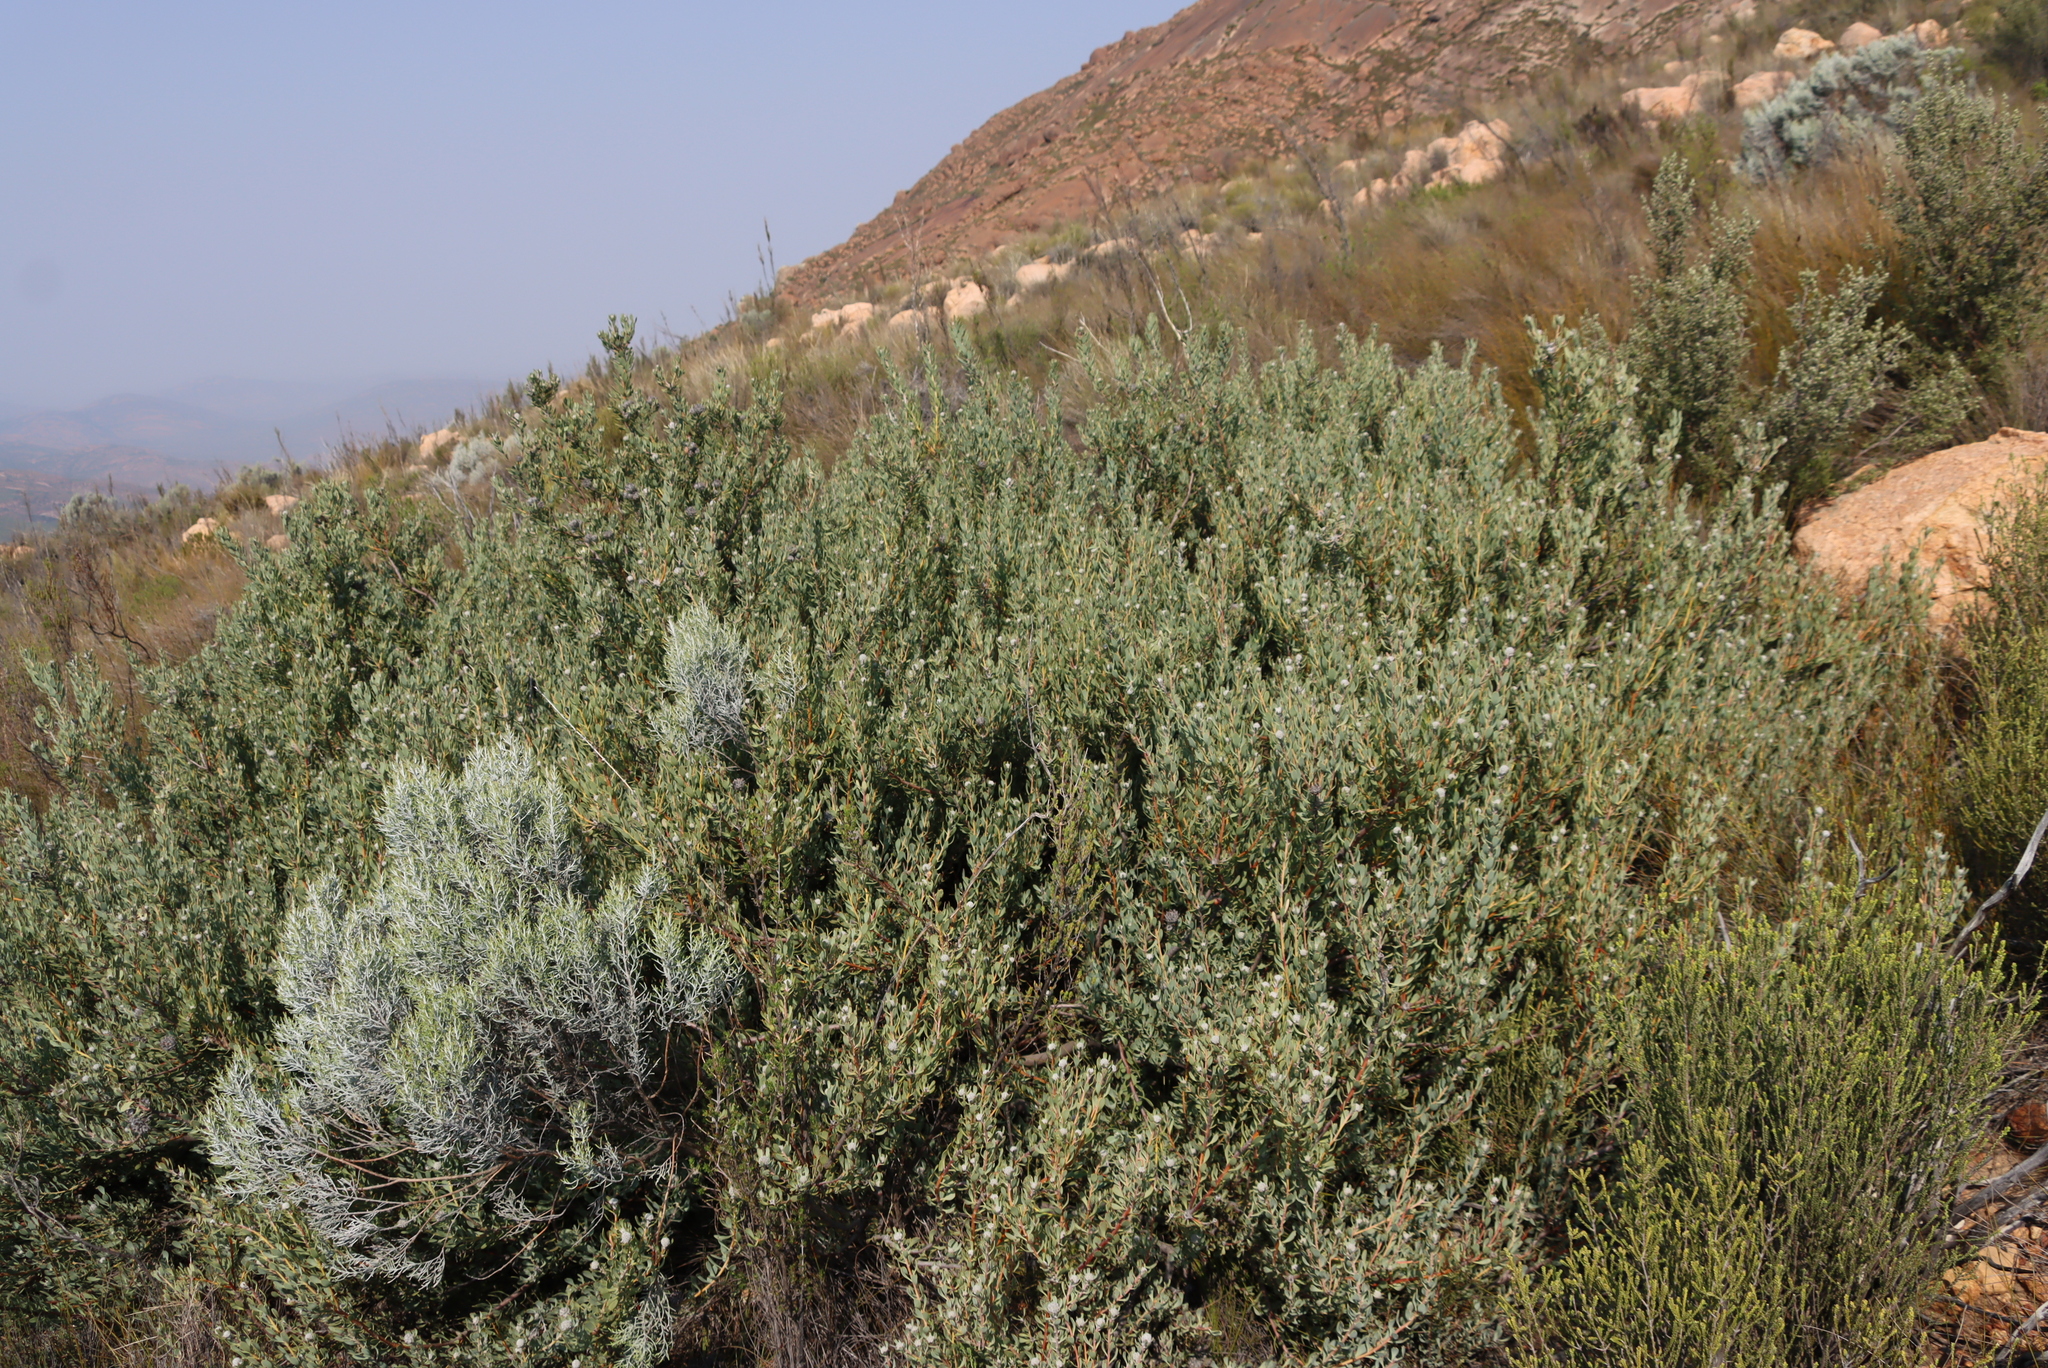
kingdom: Plantae
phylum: Tracheophyta
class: Magnoliopsida
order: Proteales
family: Proteaceae
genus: Vexatorella
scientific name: Vexatorella alpina
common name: Kamiesberg vexator
